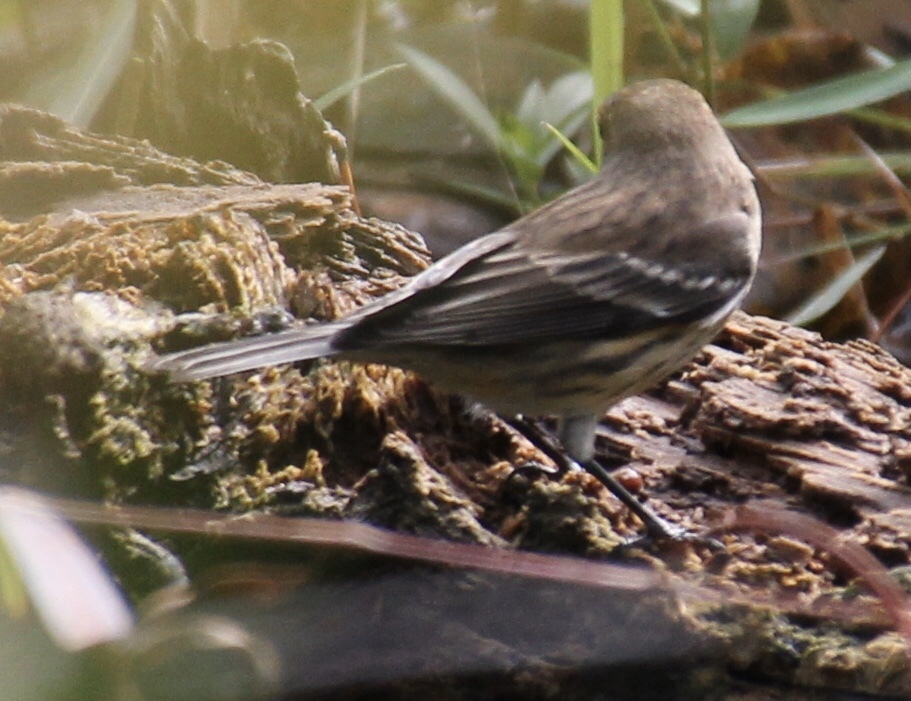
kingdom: Animalia
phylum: Chordata
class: Aves
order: Passeriformes
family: Parulidae
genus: Setophaga
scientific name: Setophaga coronata
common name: Myrtle warbler
